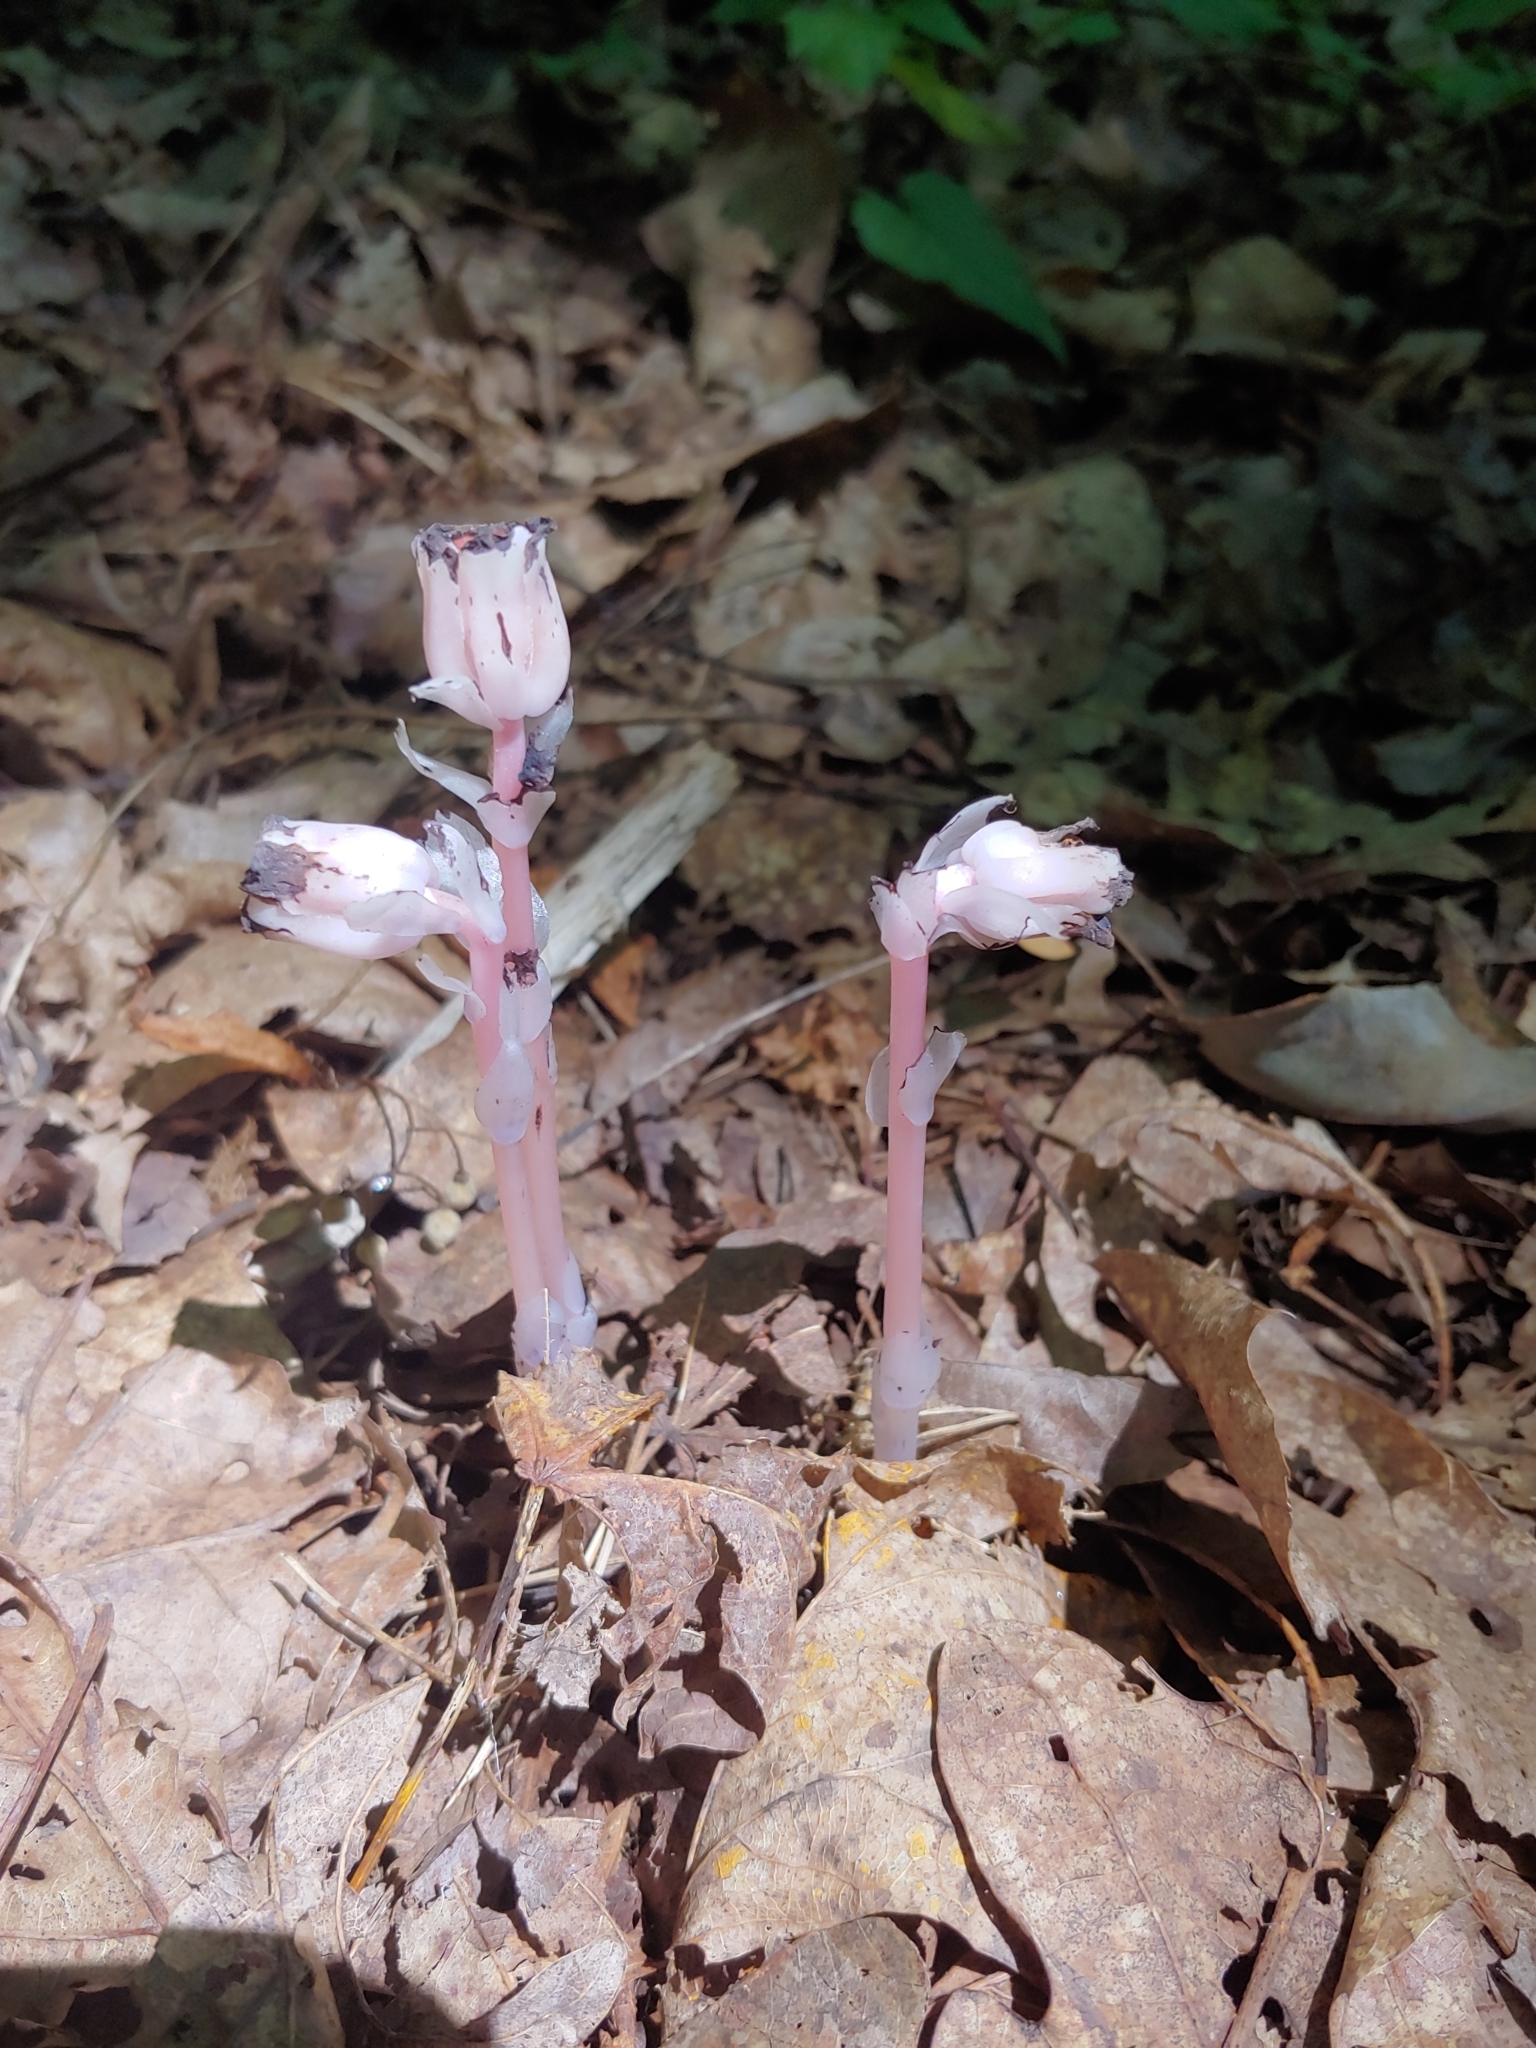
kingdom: Plantae
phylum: Tracheophyta
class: Magnoliopsida
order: Ericales
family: Ericaceae
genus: Monotropa
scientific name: Monotropa uniflora
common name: Convulsion root
